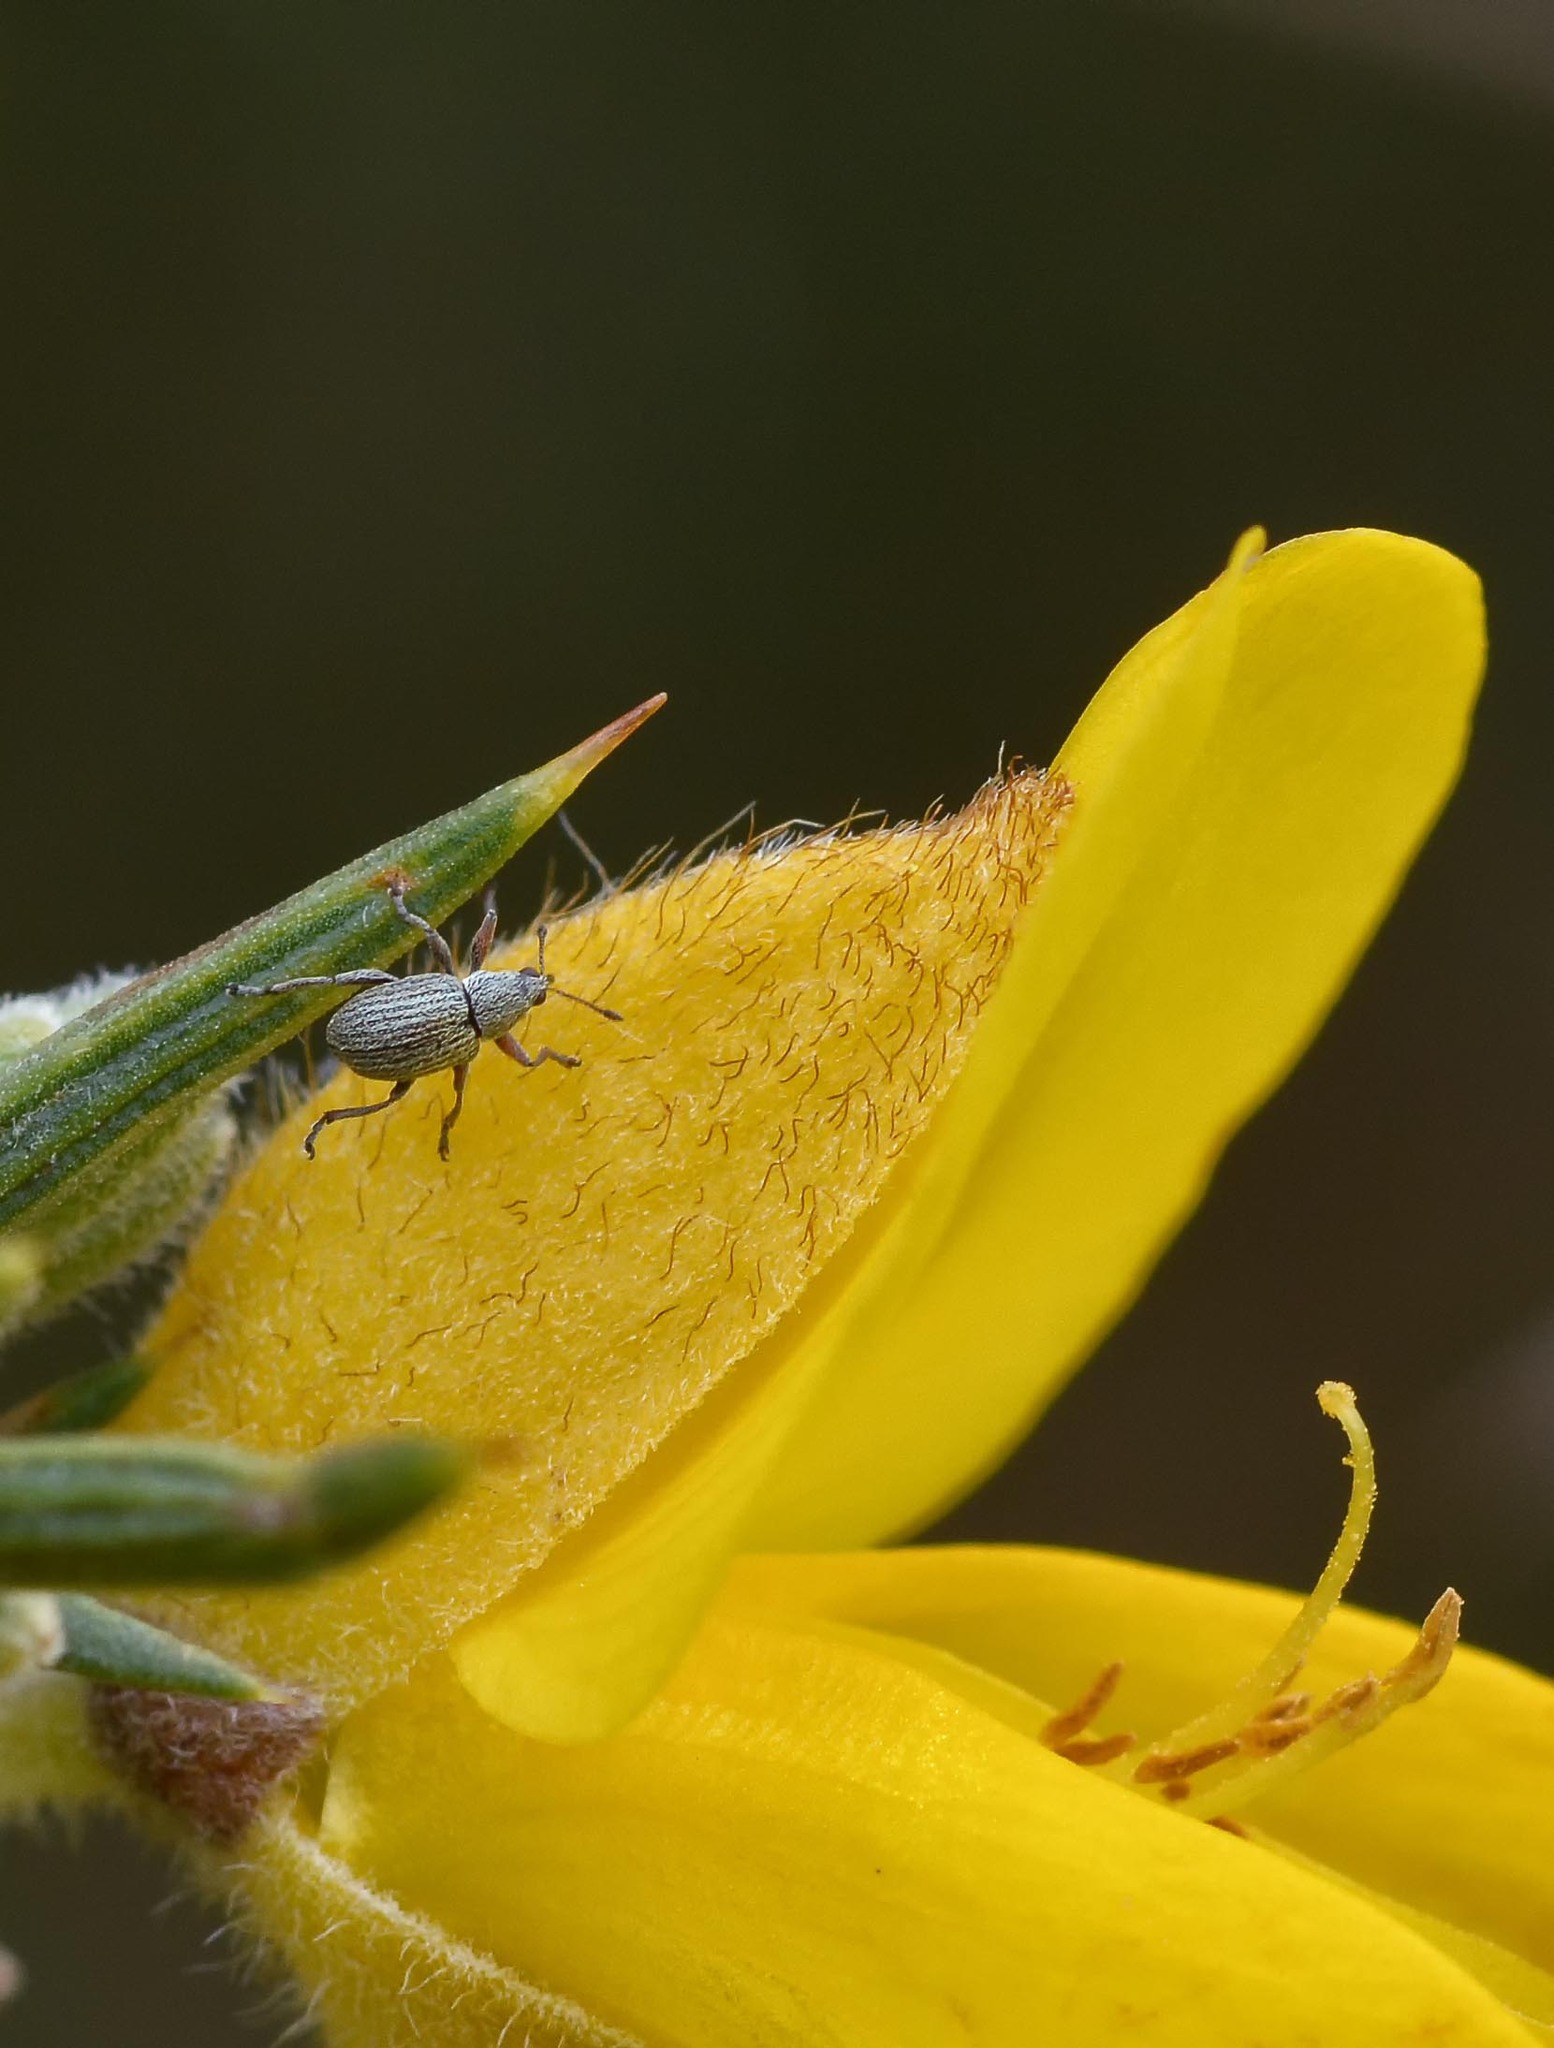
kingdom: Animalia
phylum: Arthropoda
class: Insecta
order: Coleoptera
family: Brentidae
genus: Exapion
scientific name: Exapion ulicis
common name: Gorse seed weevil
